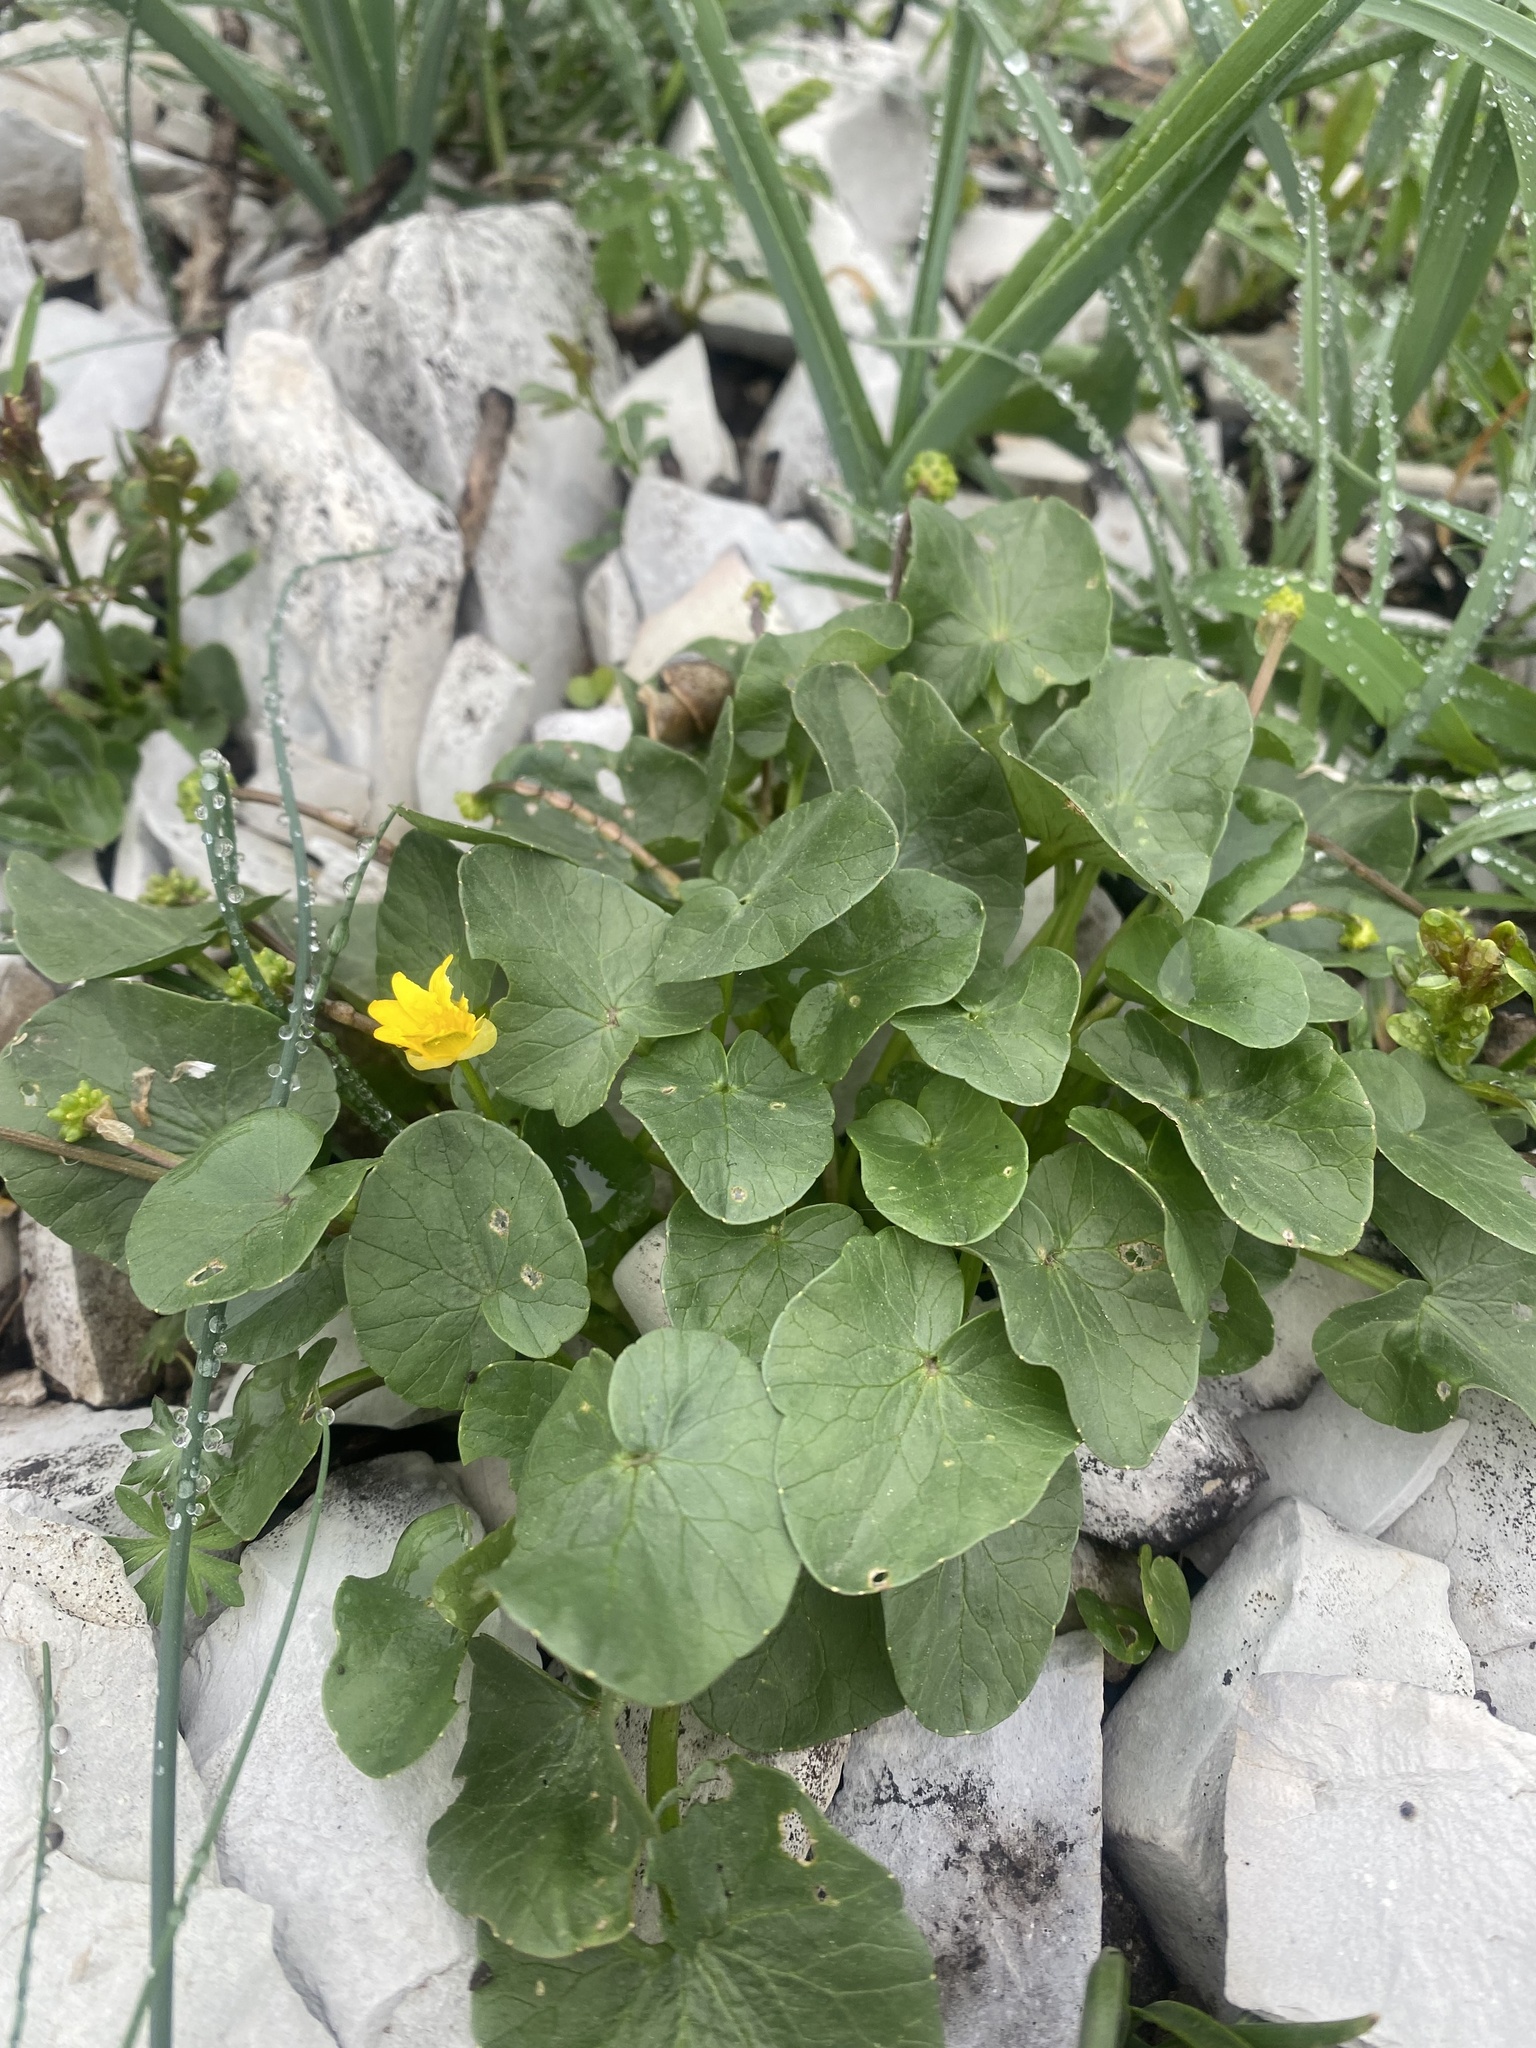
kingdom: Plantae
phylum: Tracheophyta
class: Magnoliopsida
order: Ranunculales
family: Ranunculaceae
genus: Ficaria
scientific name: Ficaria verna
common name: Lesser celandine
